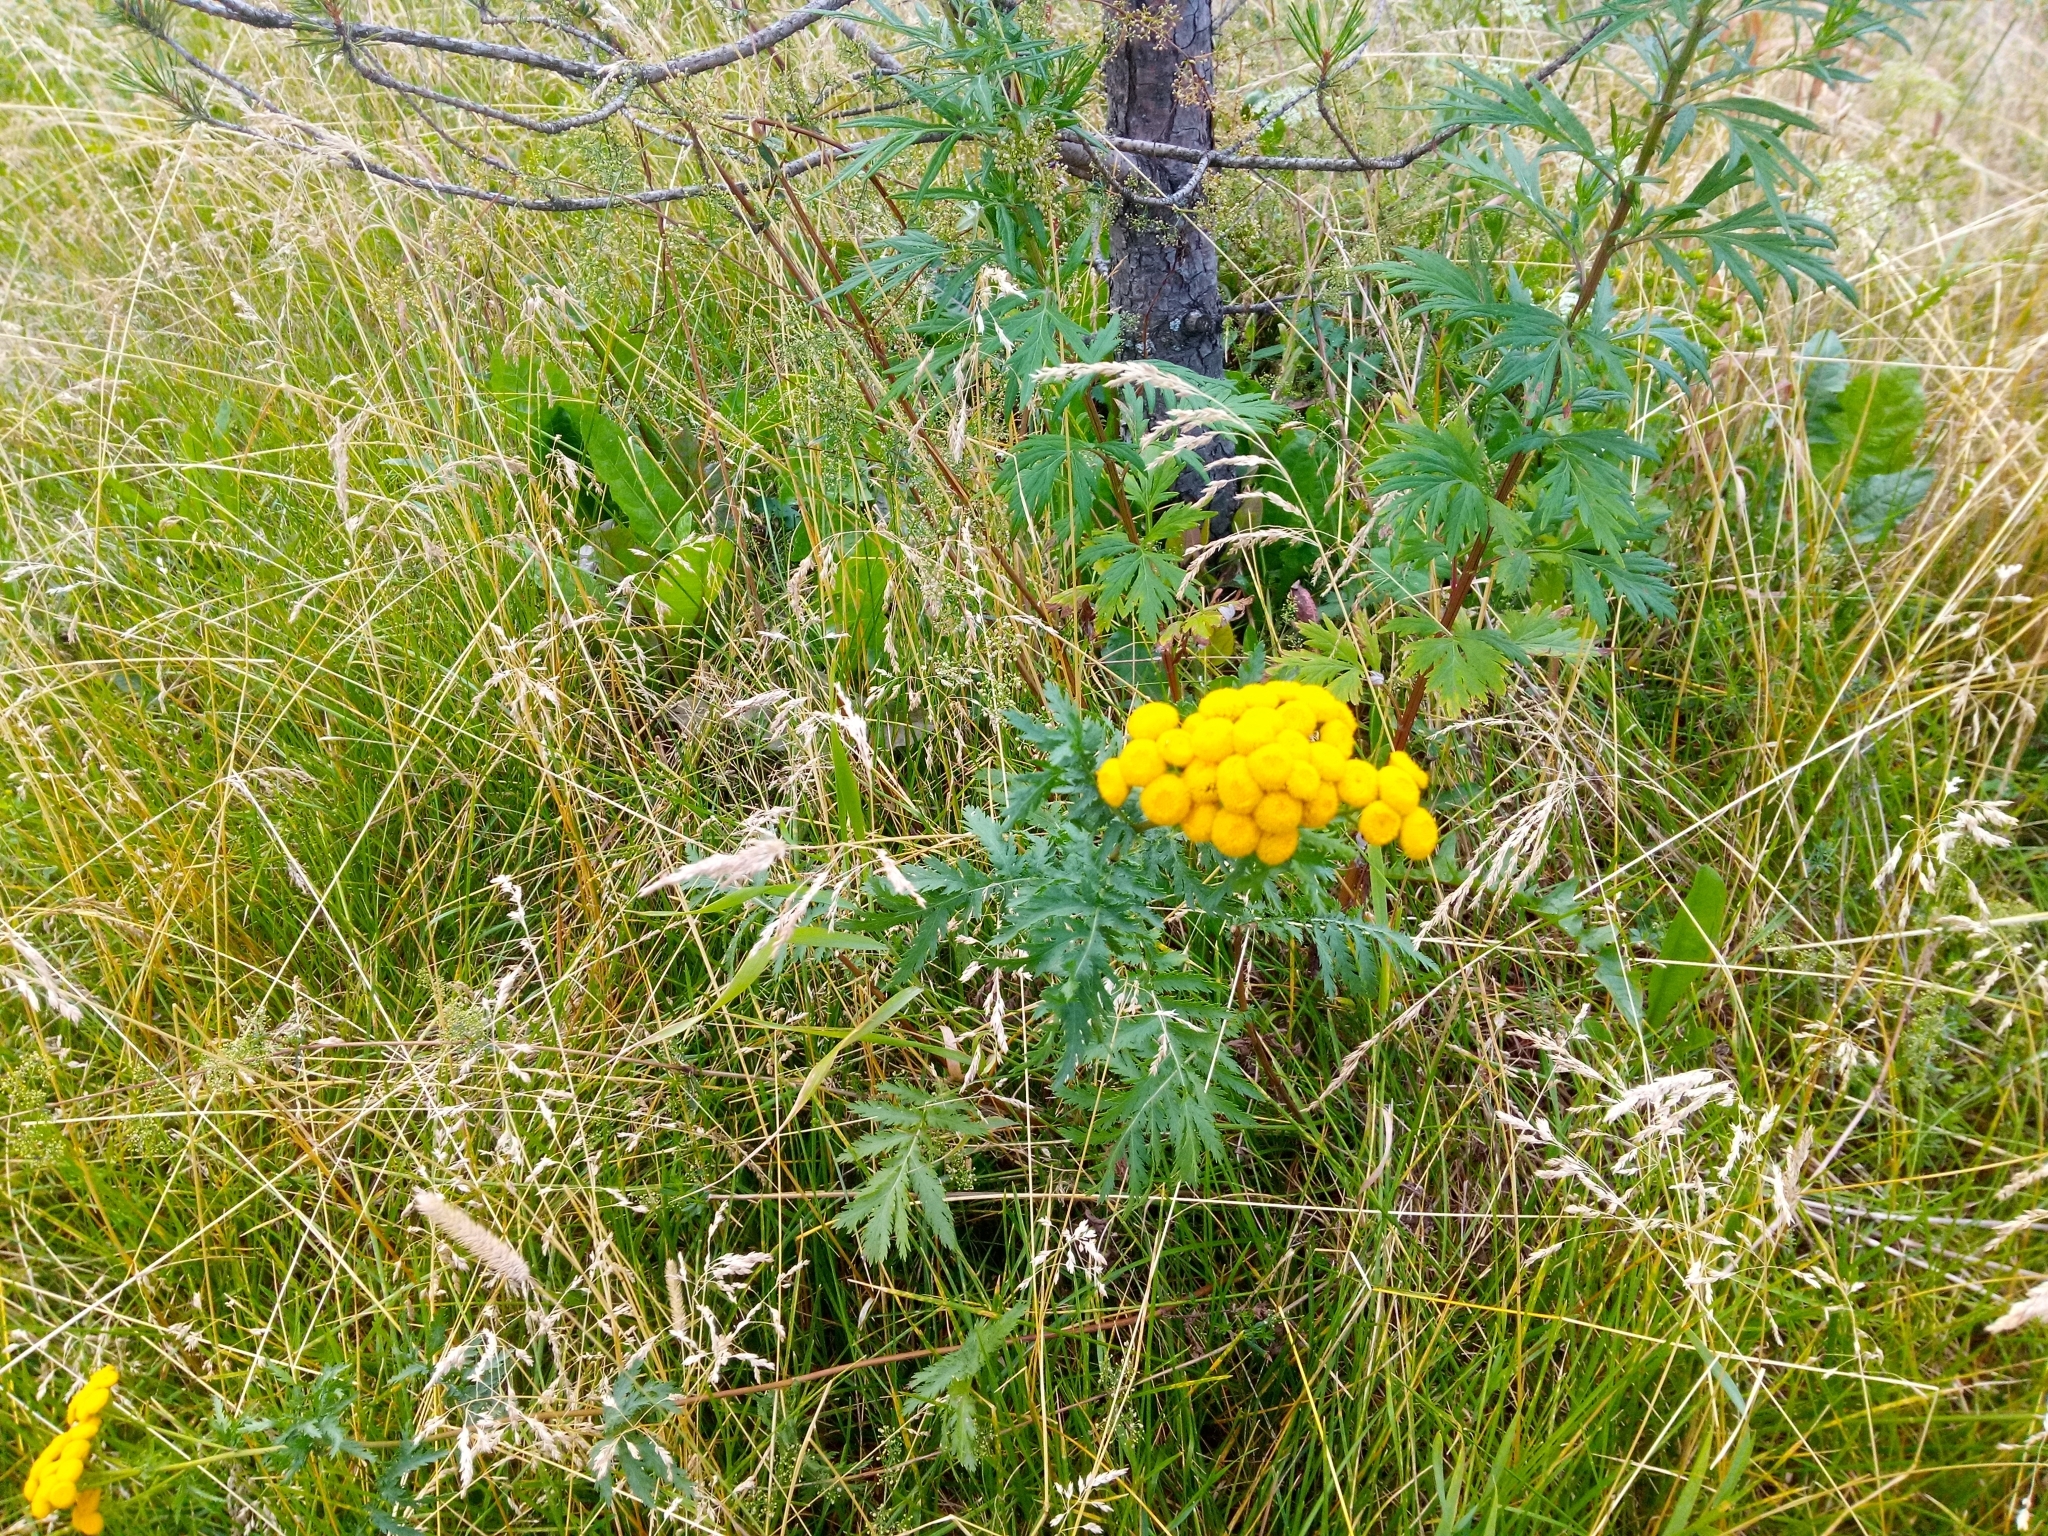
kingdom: Plantae
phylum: Tracheophyta
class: Magnoliopsida
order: Asterales
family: Asteraceae
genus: Tanacetum
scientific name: Tanacetum vulgare
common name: Common tansy
